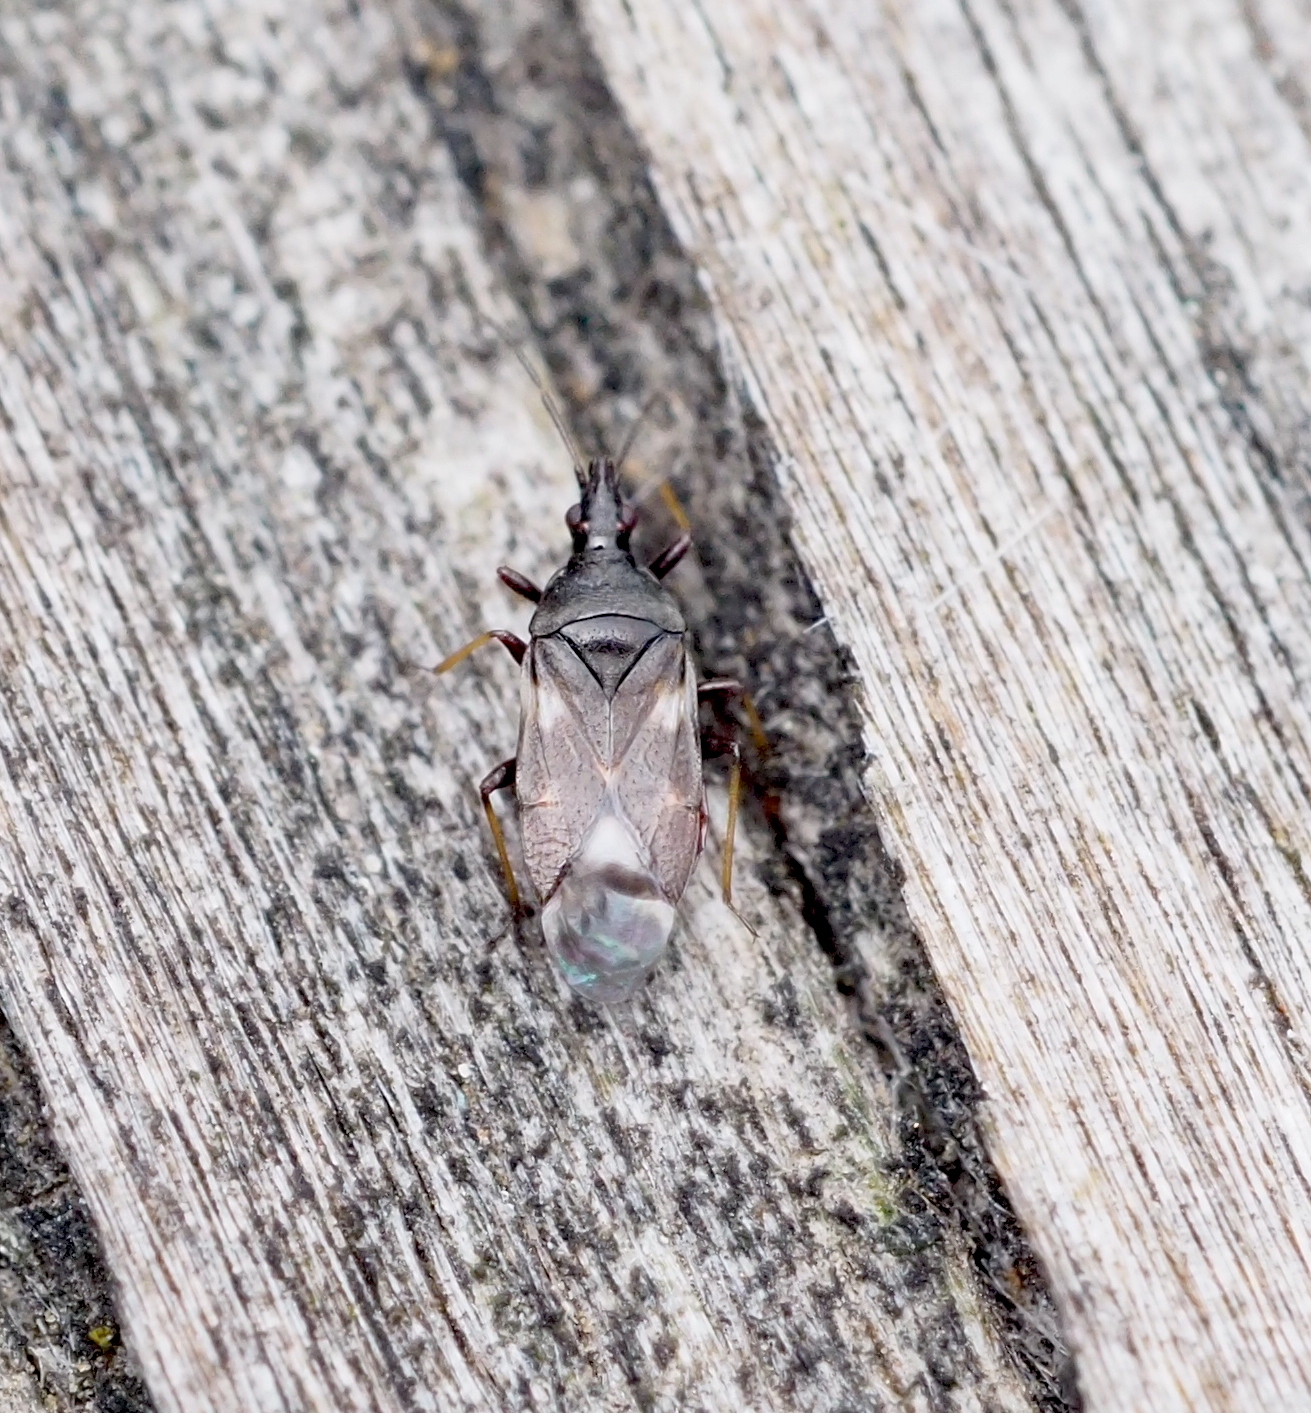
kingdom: Animalia
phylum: Arthropoda
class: Insecta
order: Hemiptera
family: Anthocoridae
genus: Temnostethus
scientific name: Temnostethus pusillus
